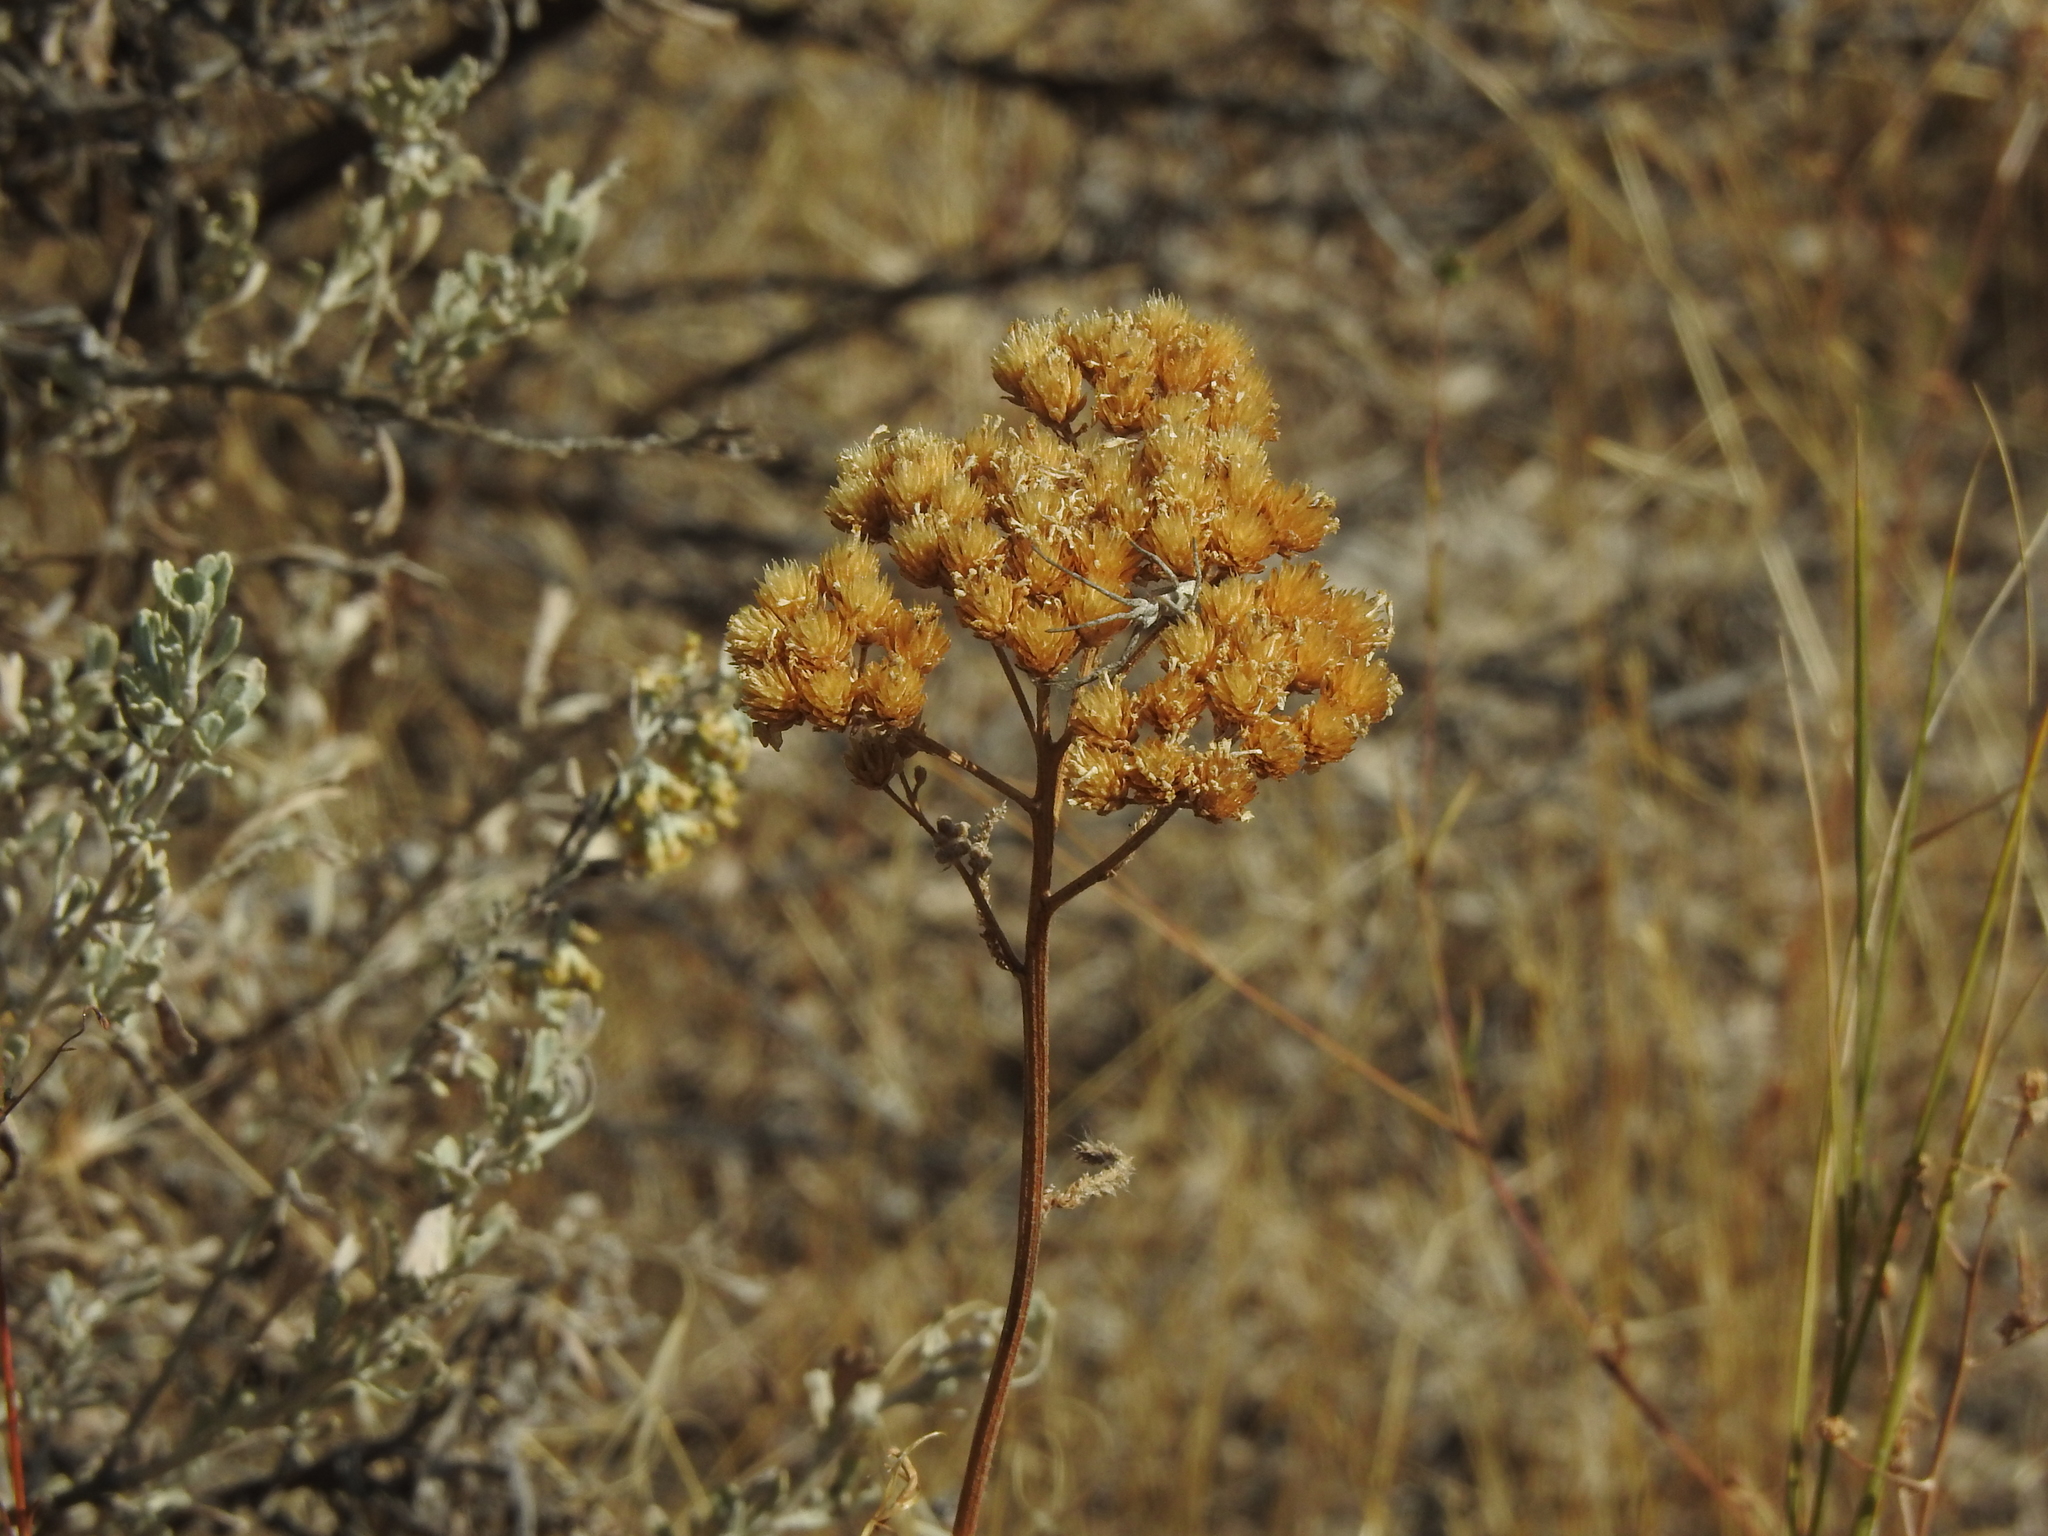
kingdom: Plantae
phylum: Tracheophyta
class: Magnoliopsida
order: Asterales
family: Asteraceae
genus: Achillea
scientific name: Achillea millefolium
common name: Yarrow
